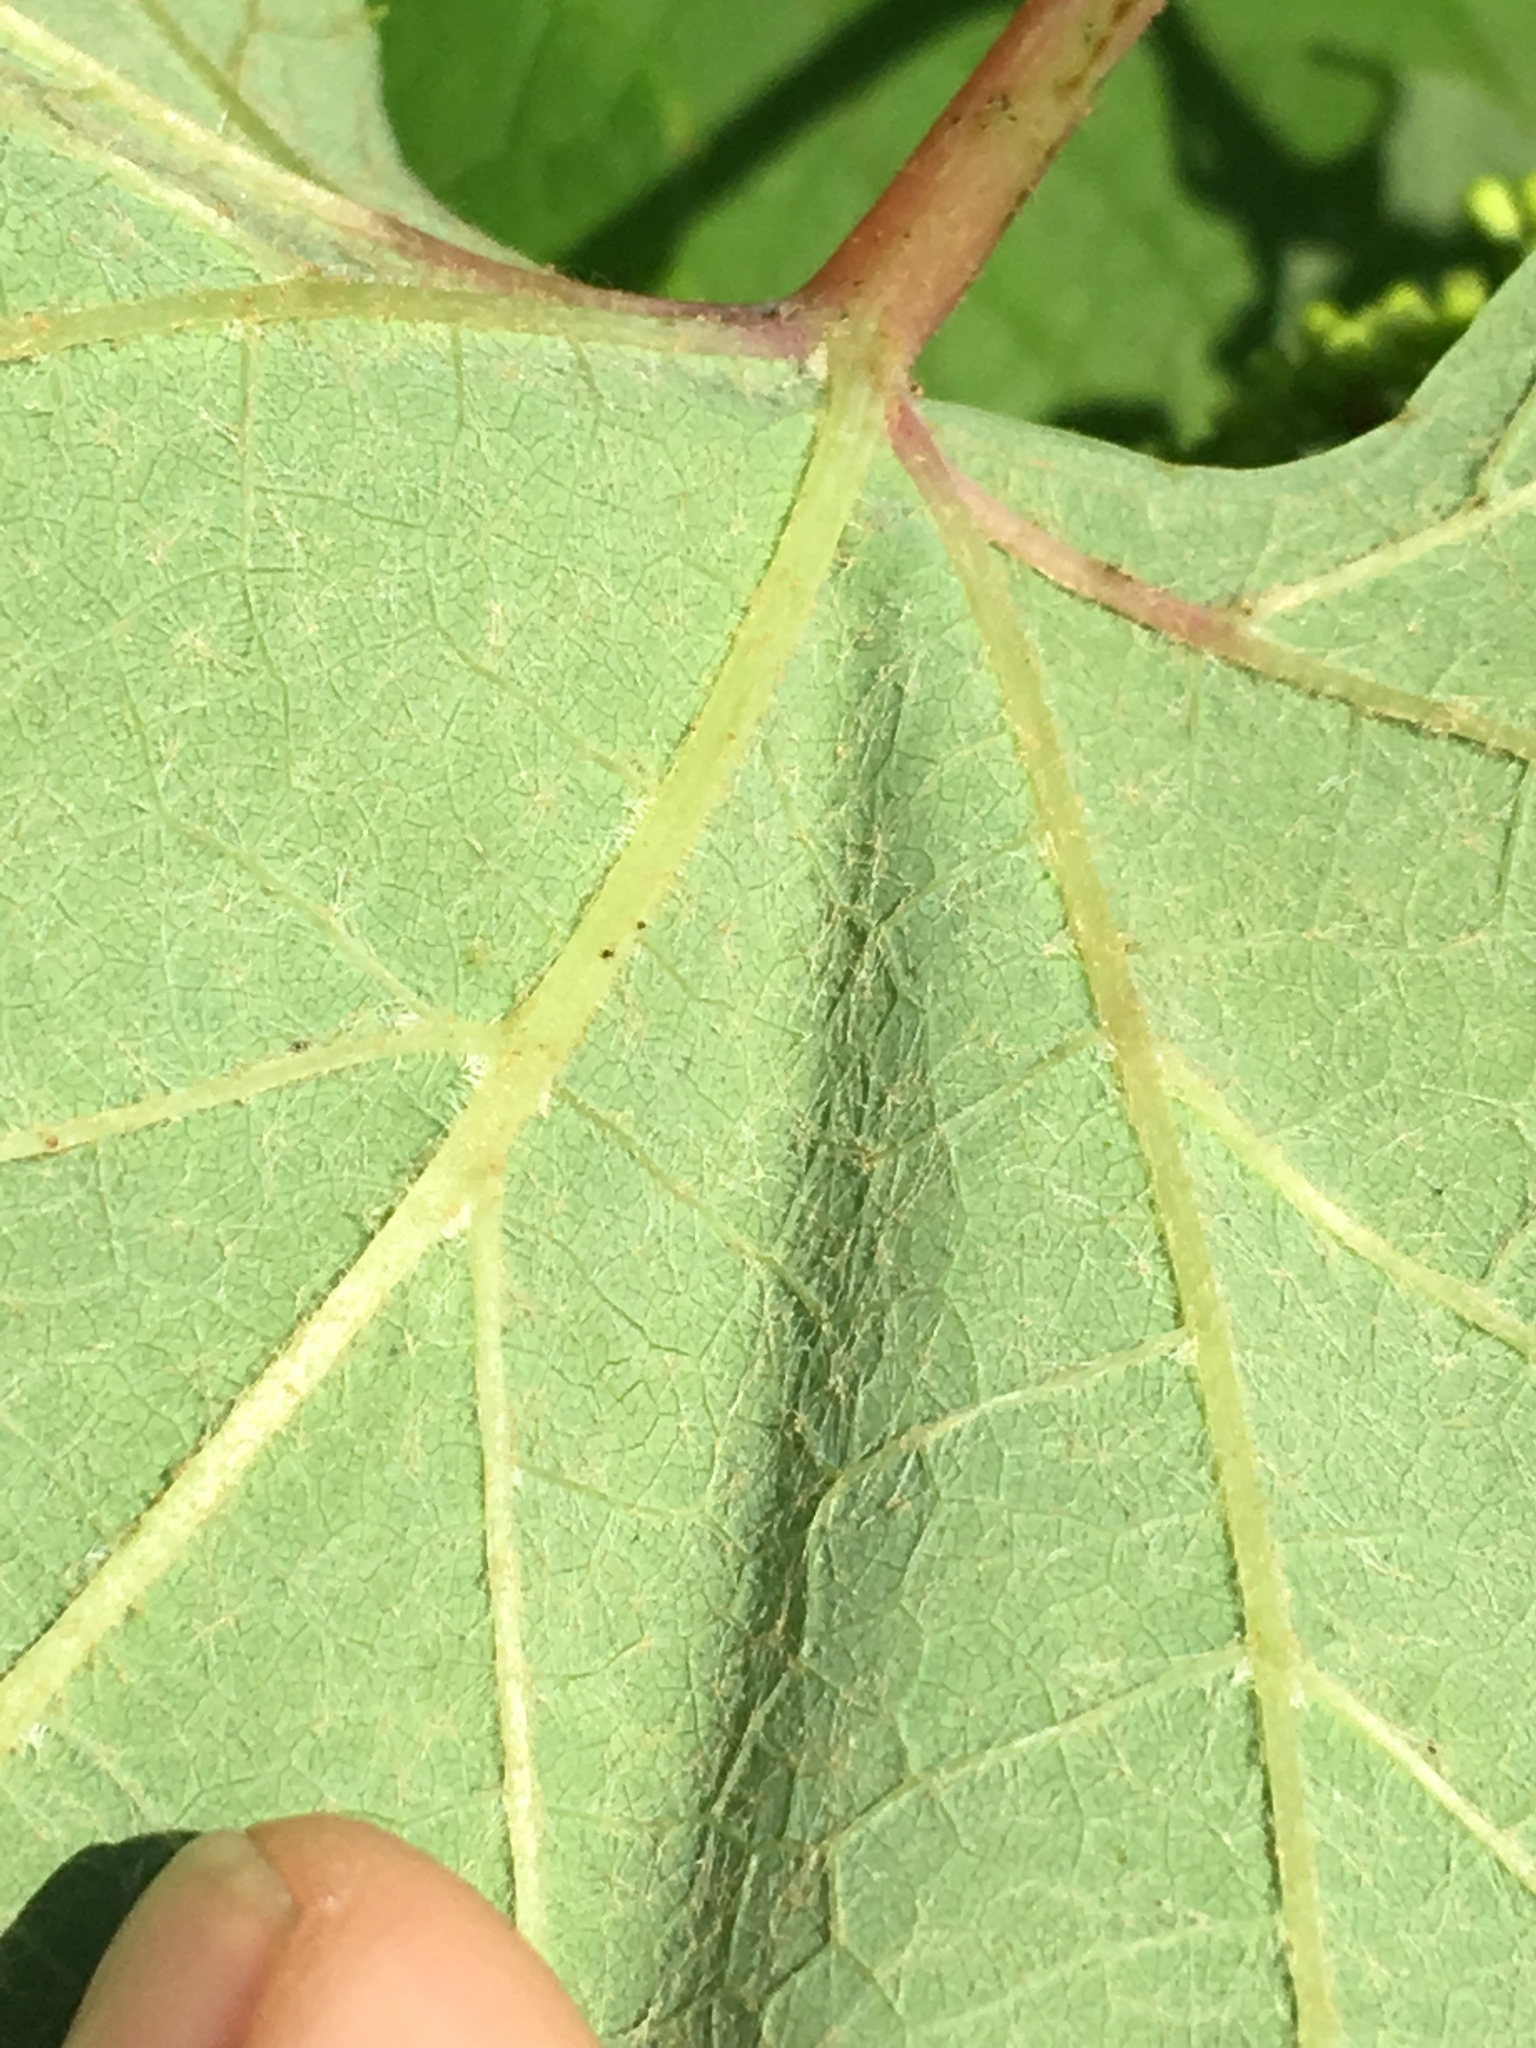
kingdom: Plantae
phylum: Tracheophyta
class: Magnoliopsida
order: Vitales
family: Vitaceae
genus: Vitis
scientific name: Vitis aestivalis
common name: Pigeon grape
